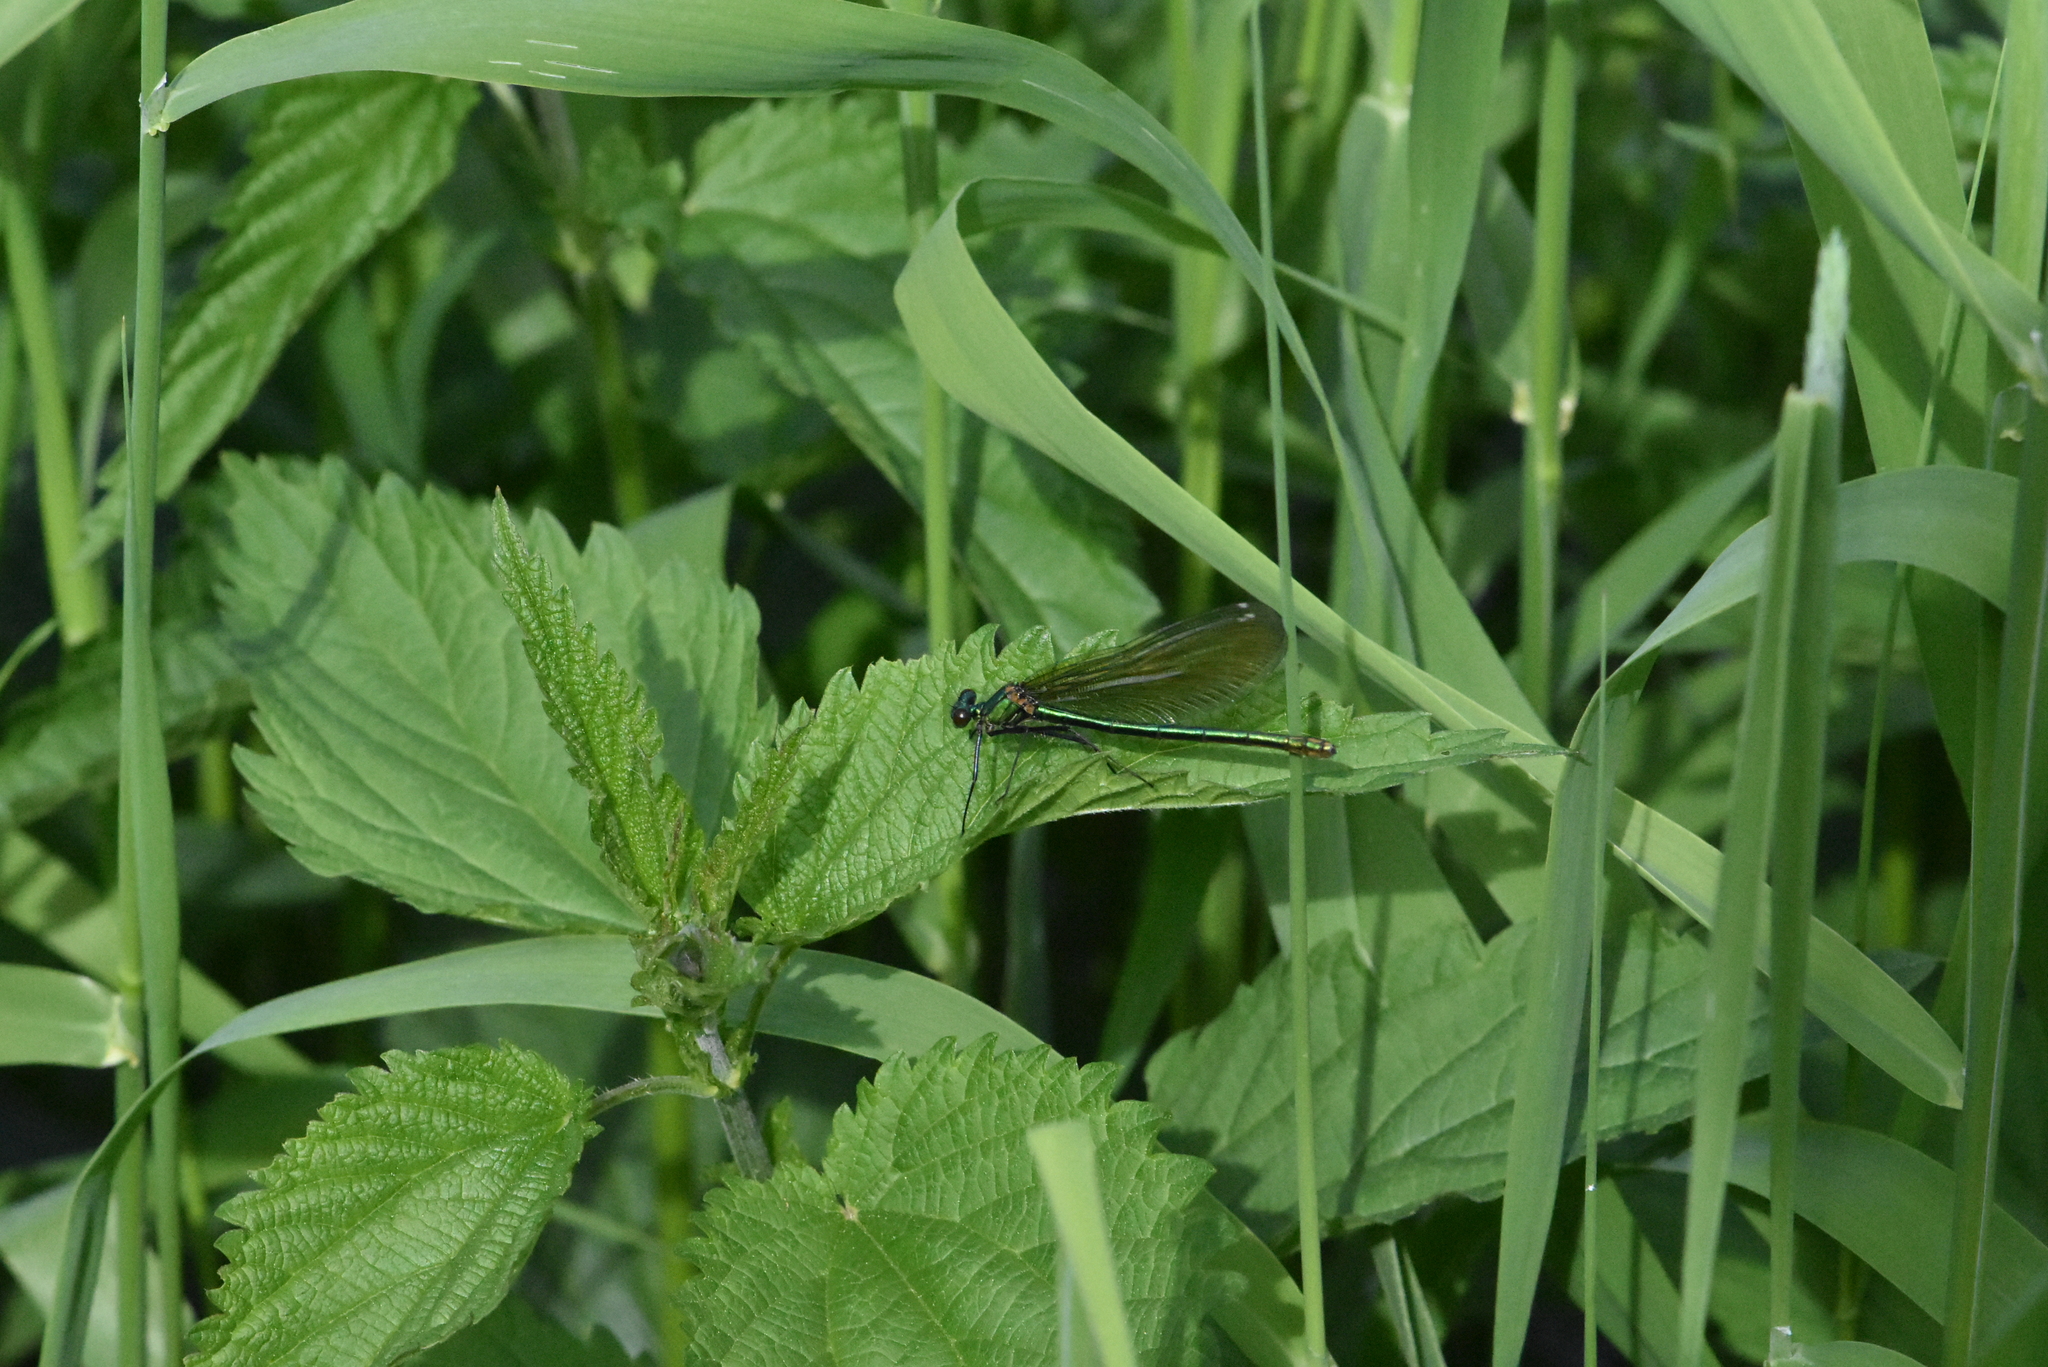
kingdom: Animalia
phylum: Arthropoda
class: Insecta
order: Odonata
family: Calopterygidae
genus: Calopteryx
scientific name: Calopteryx splendens
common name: Banded demoiselle
